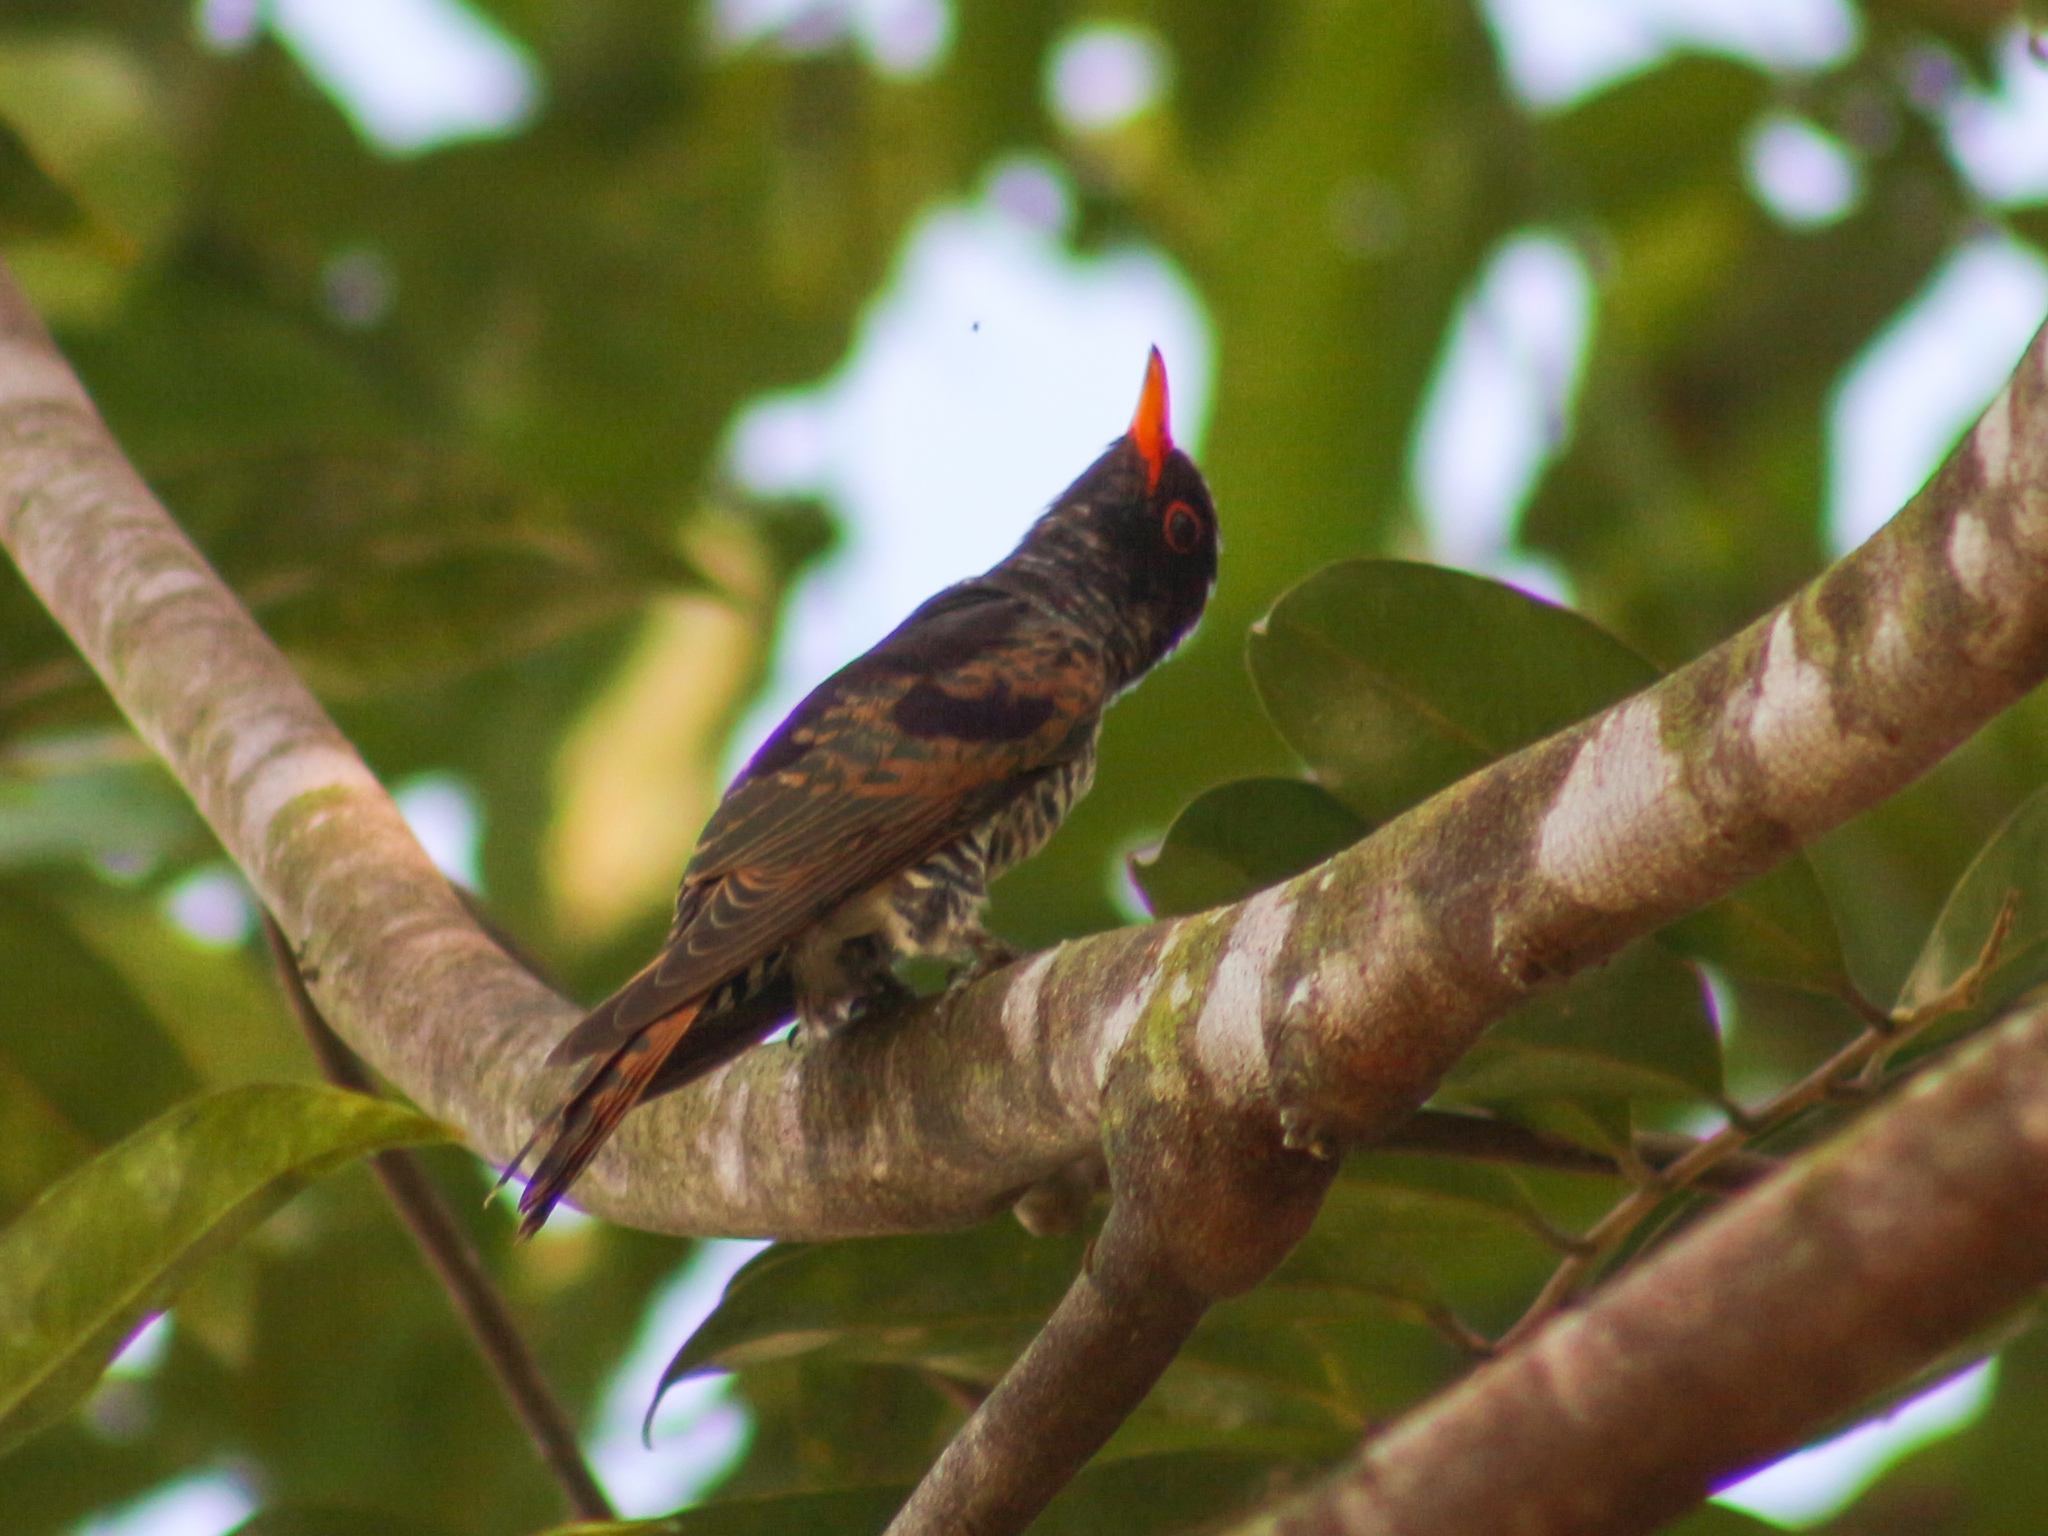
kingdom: Animalia
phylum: Chordata
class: Aves
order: Cuculiformes
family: Cuculidae
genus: Chrysococcyx
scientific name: Chrysococcyx xanthorhynchus
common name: Violet cuckoo
